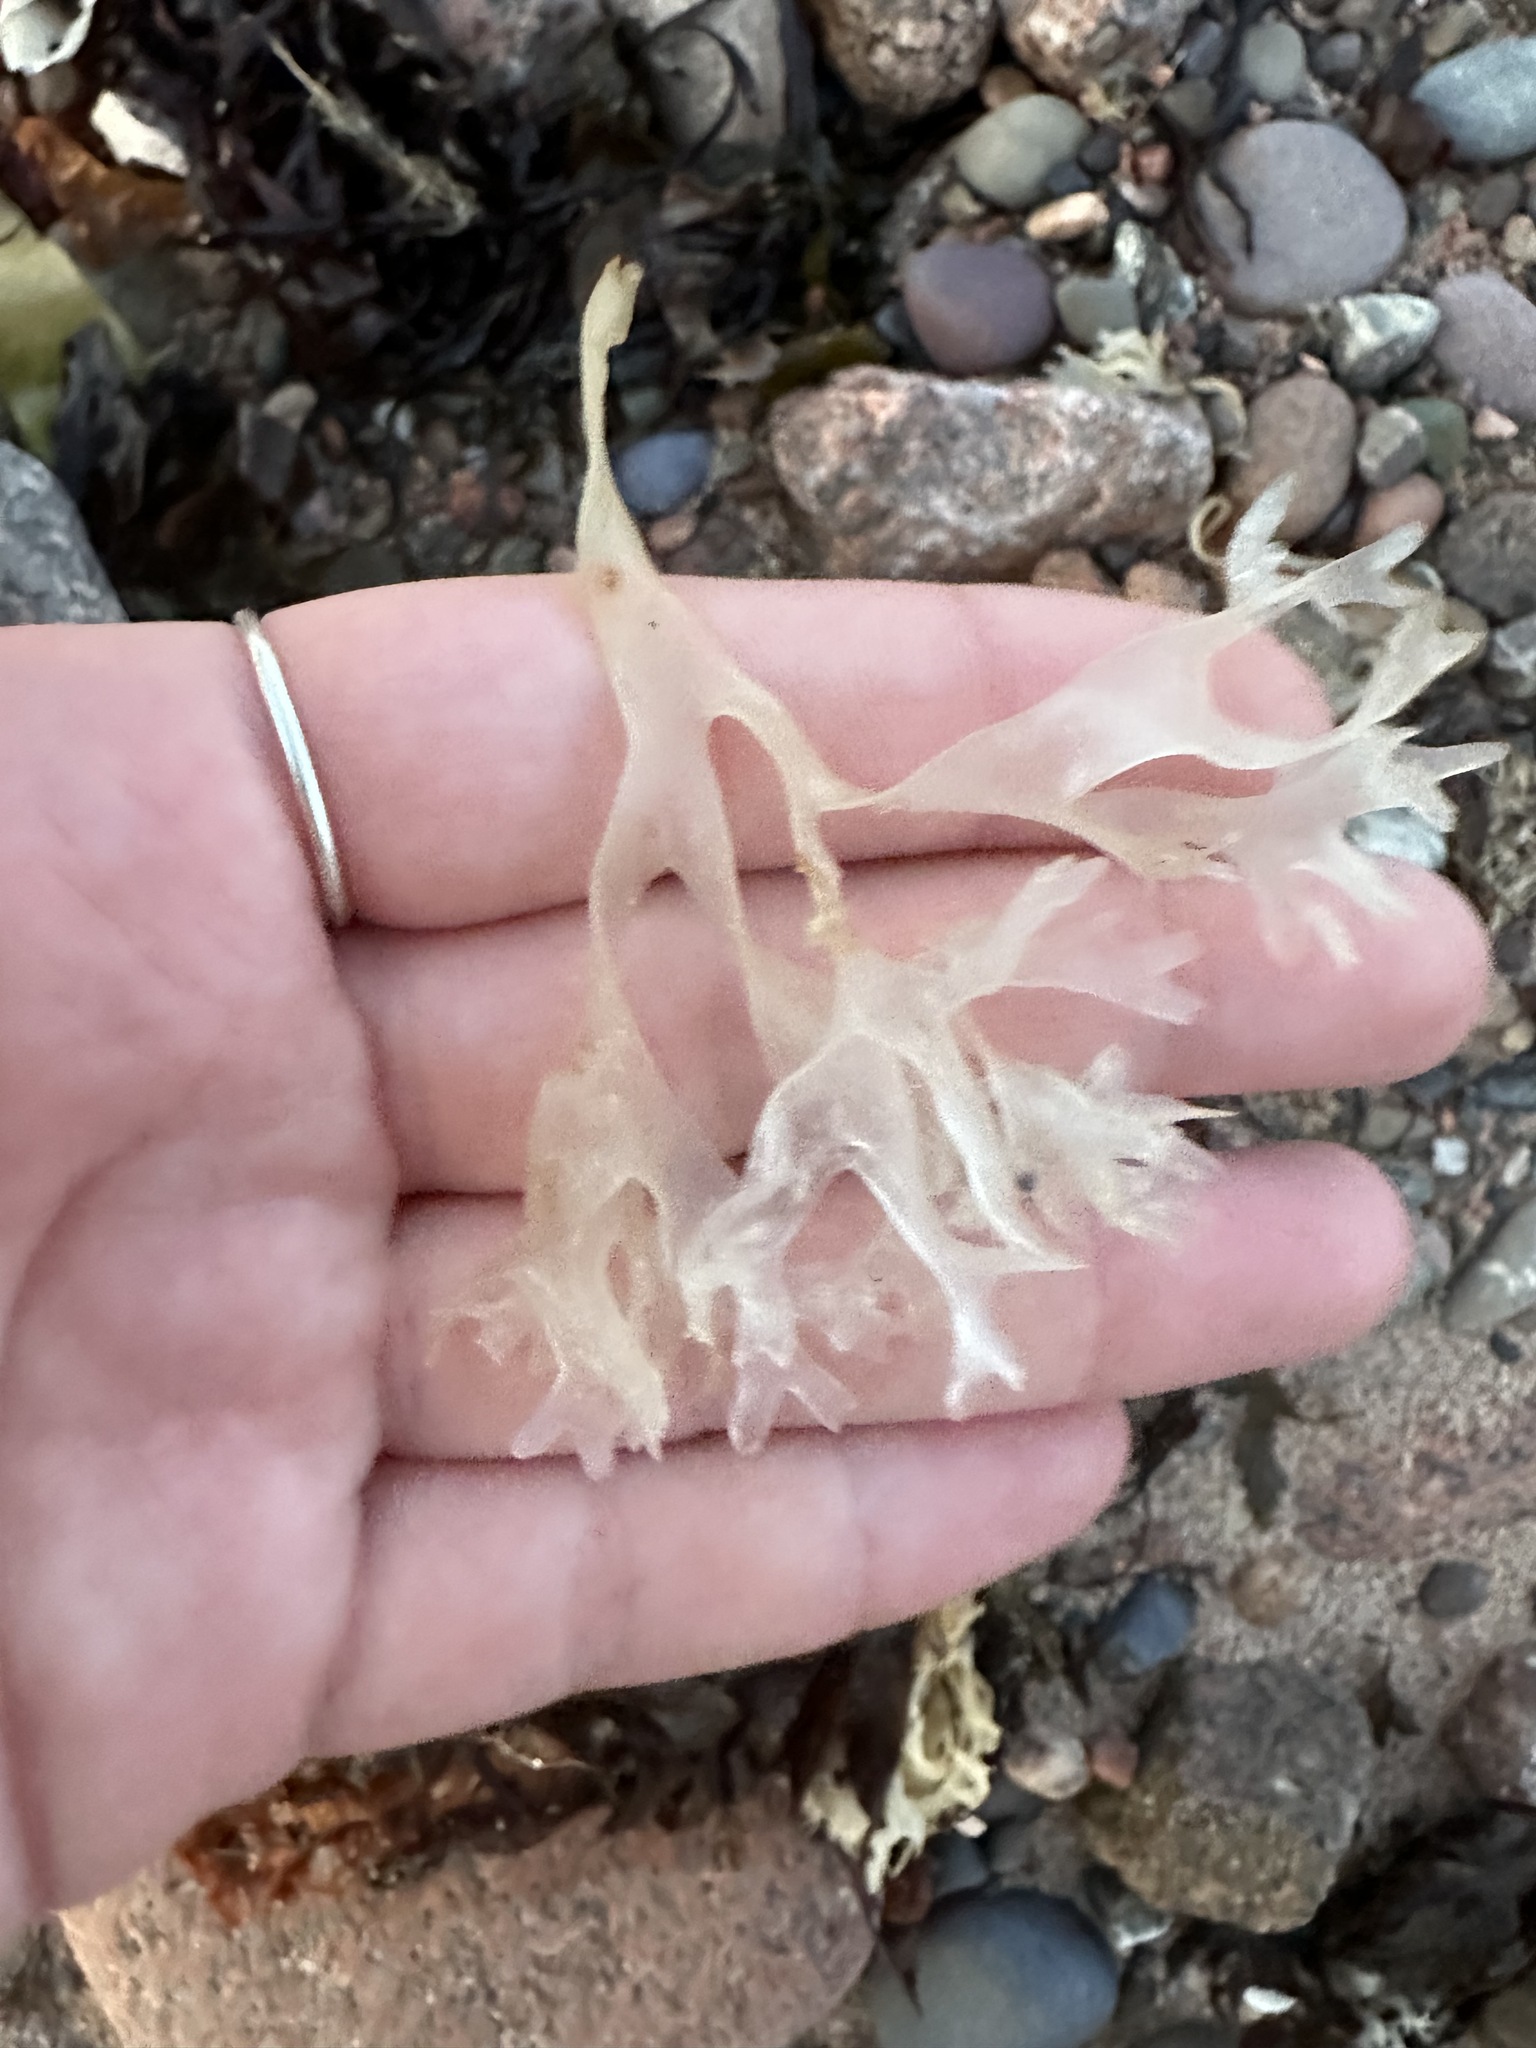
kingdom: Plantae
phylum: Rhodophyta
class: Florideophyceae
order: Gigartinales
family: Gigartinaceae
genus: Chondrus
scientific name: Chondrus crispus
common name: Carrageen
